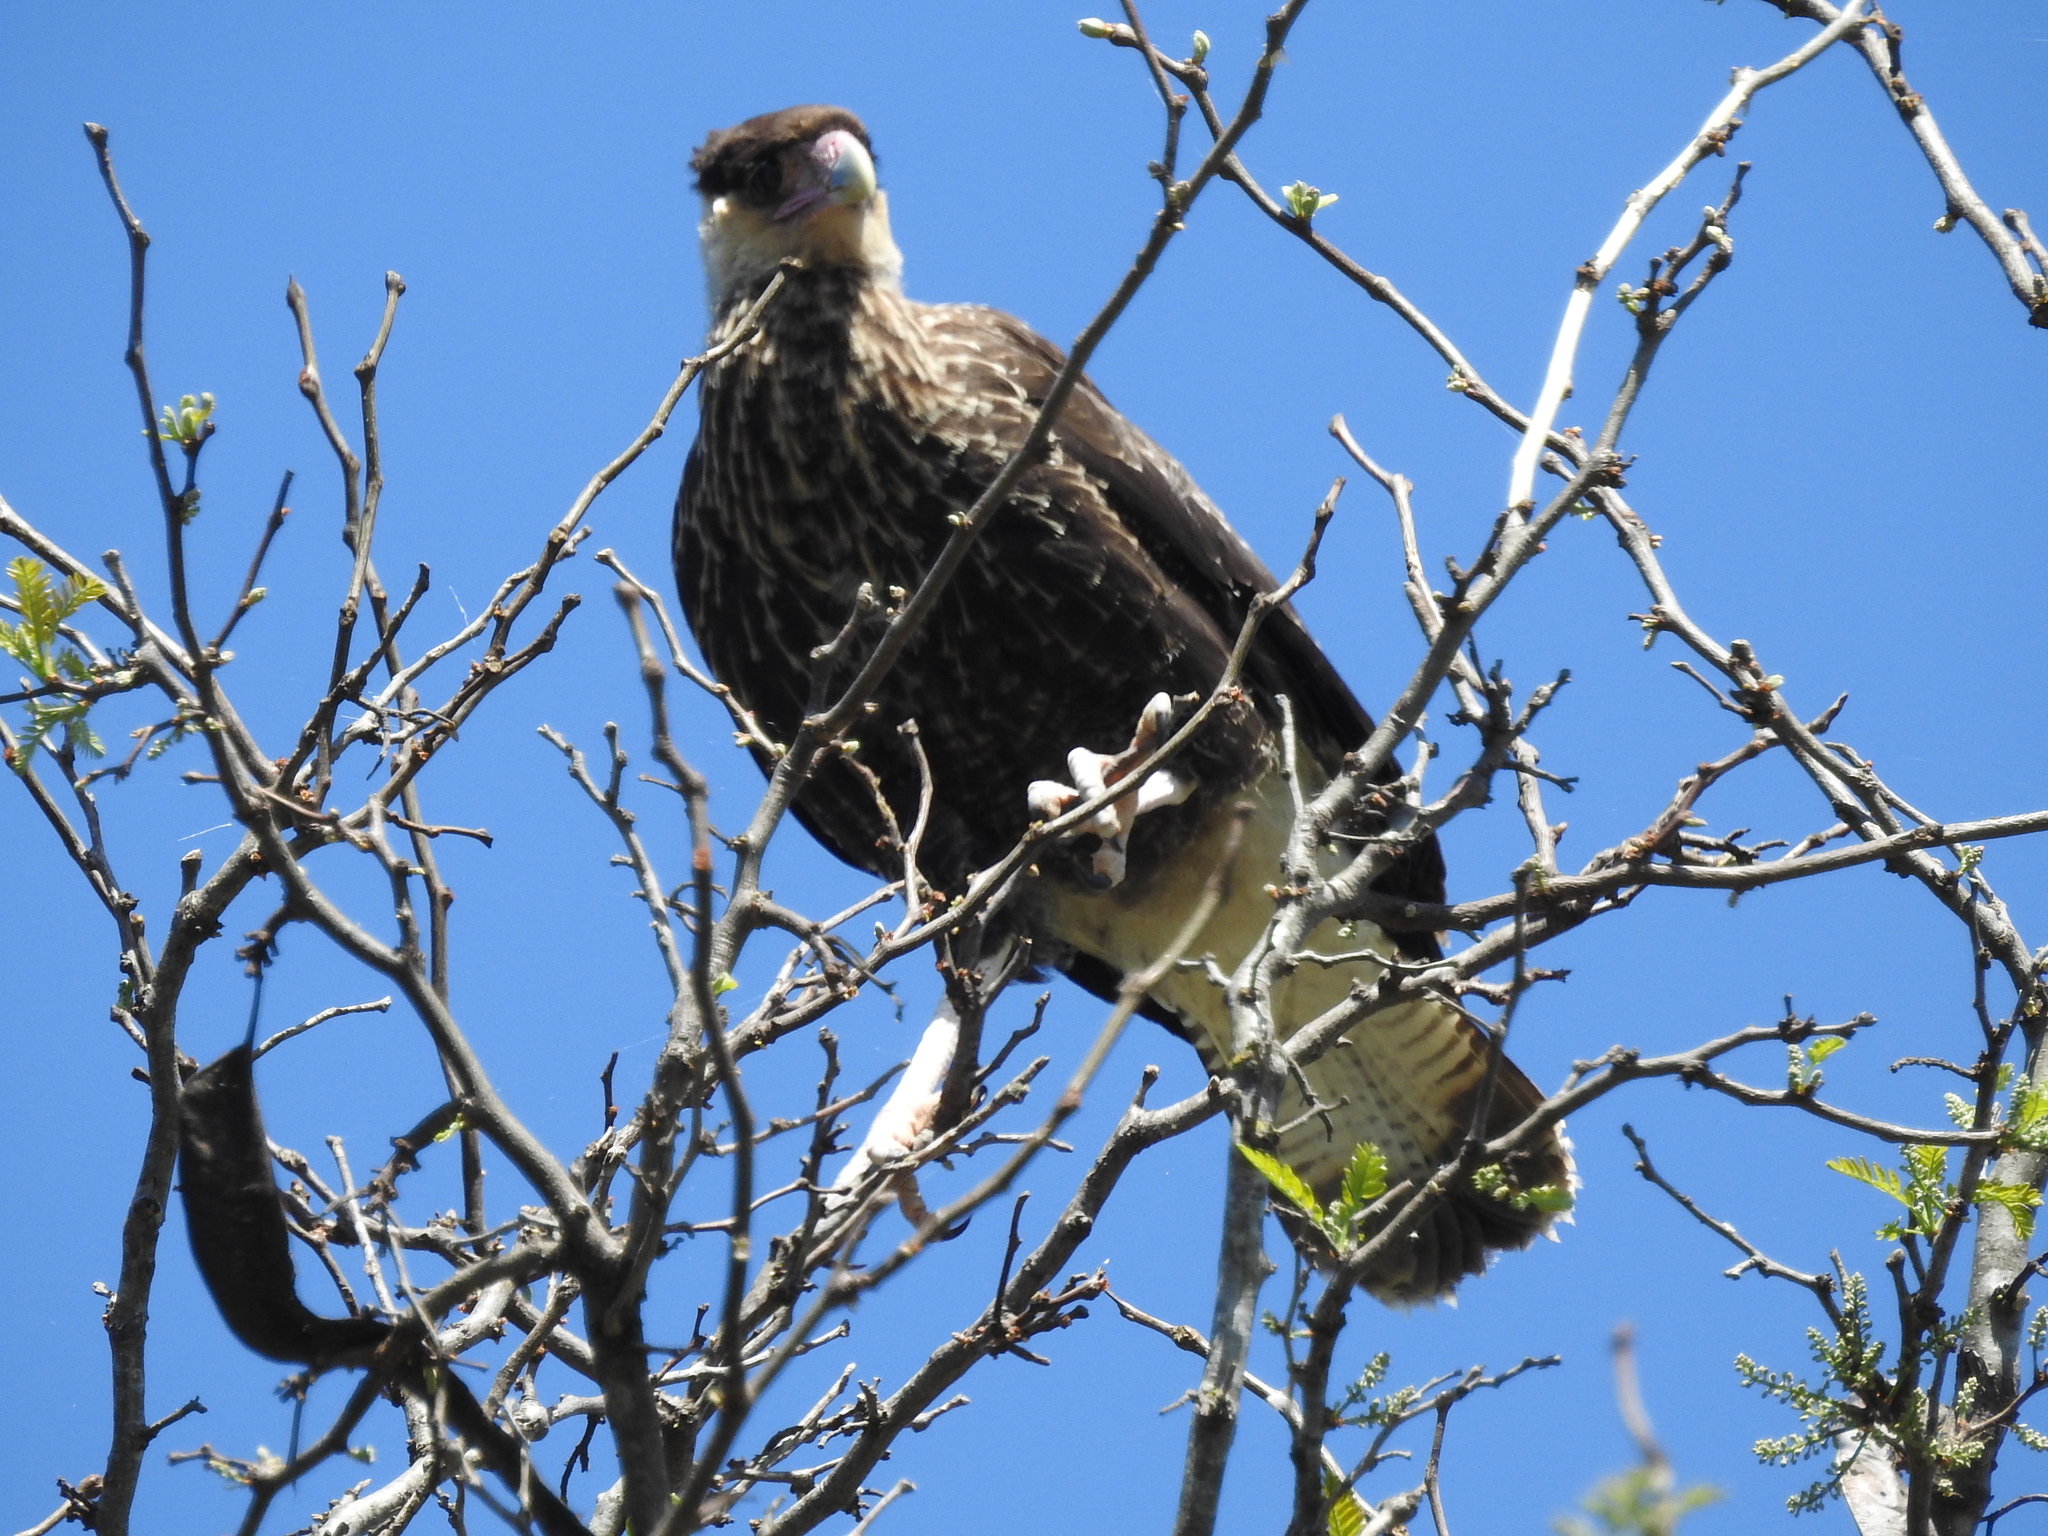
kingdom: Animalia
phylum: Chordata
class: Aves
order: Falconiformes
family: Falconidae
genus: Caracara
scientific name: Caracara plancus
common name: Southern caracara
